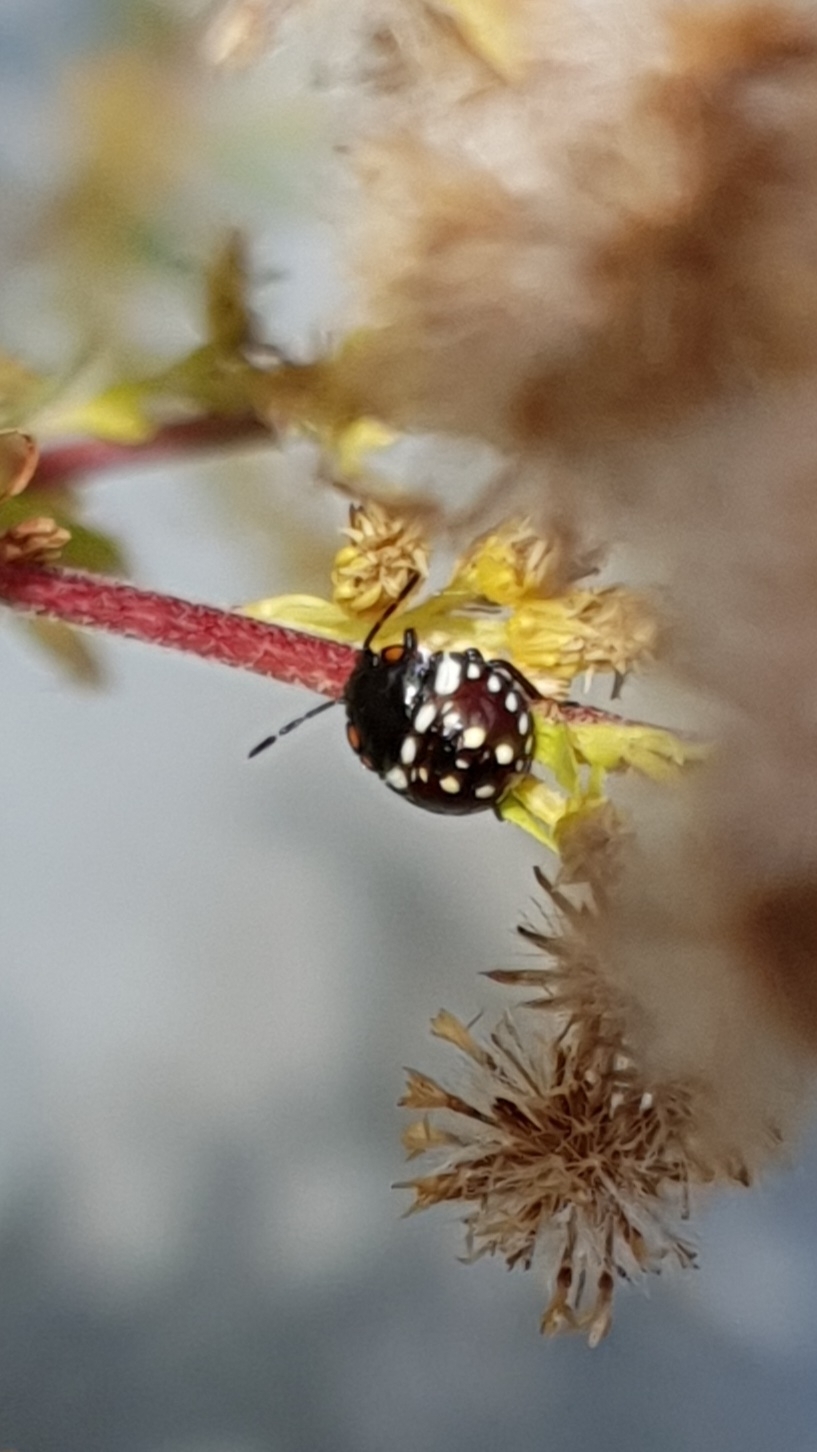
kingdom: Animalia
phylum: Arthropoda
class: Insecta
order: Hemiptera
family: Pentatomidae
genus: Nezara
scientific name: Nezara viridula
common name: Southern green stink bug
